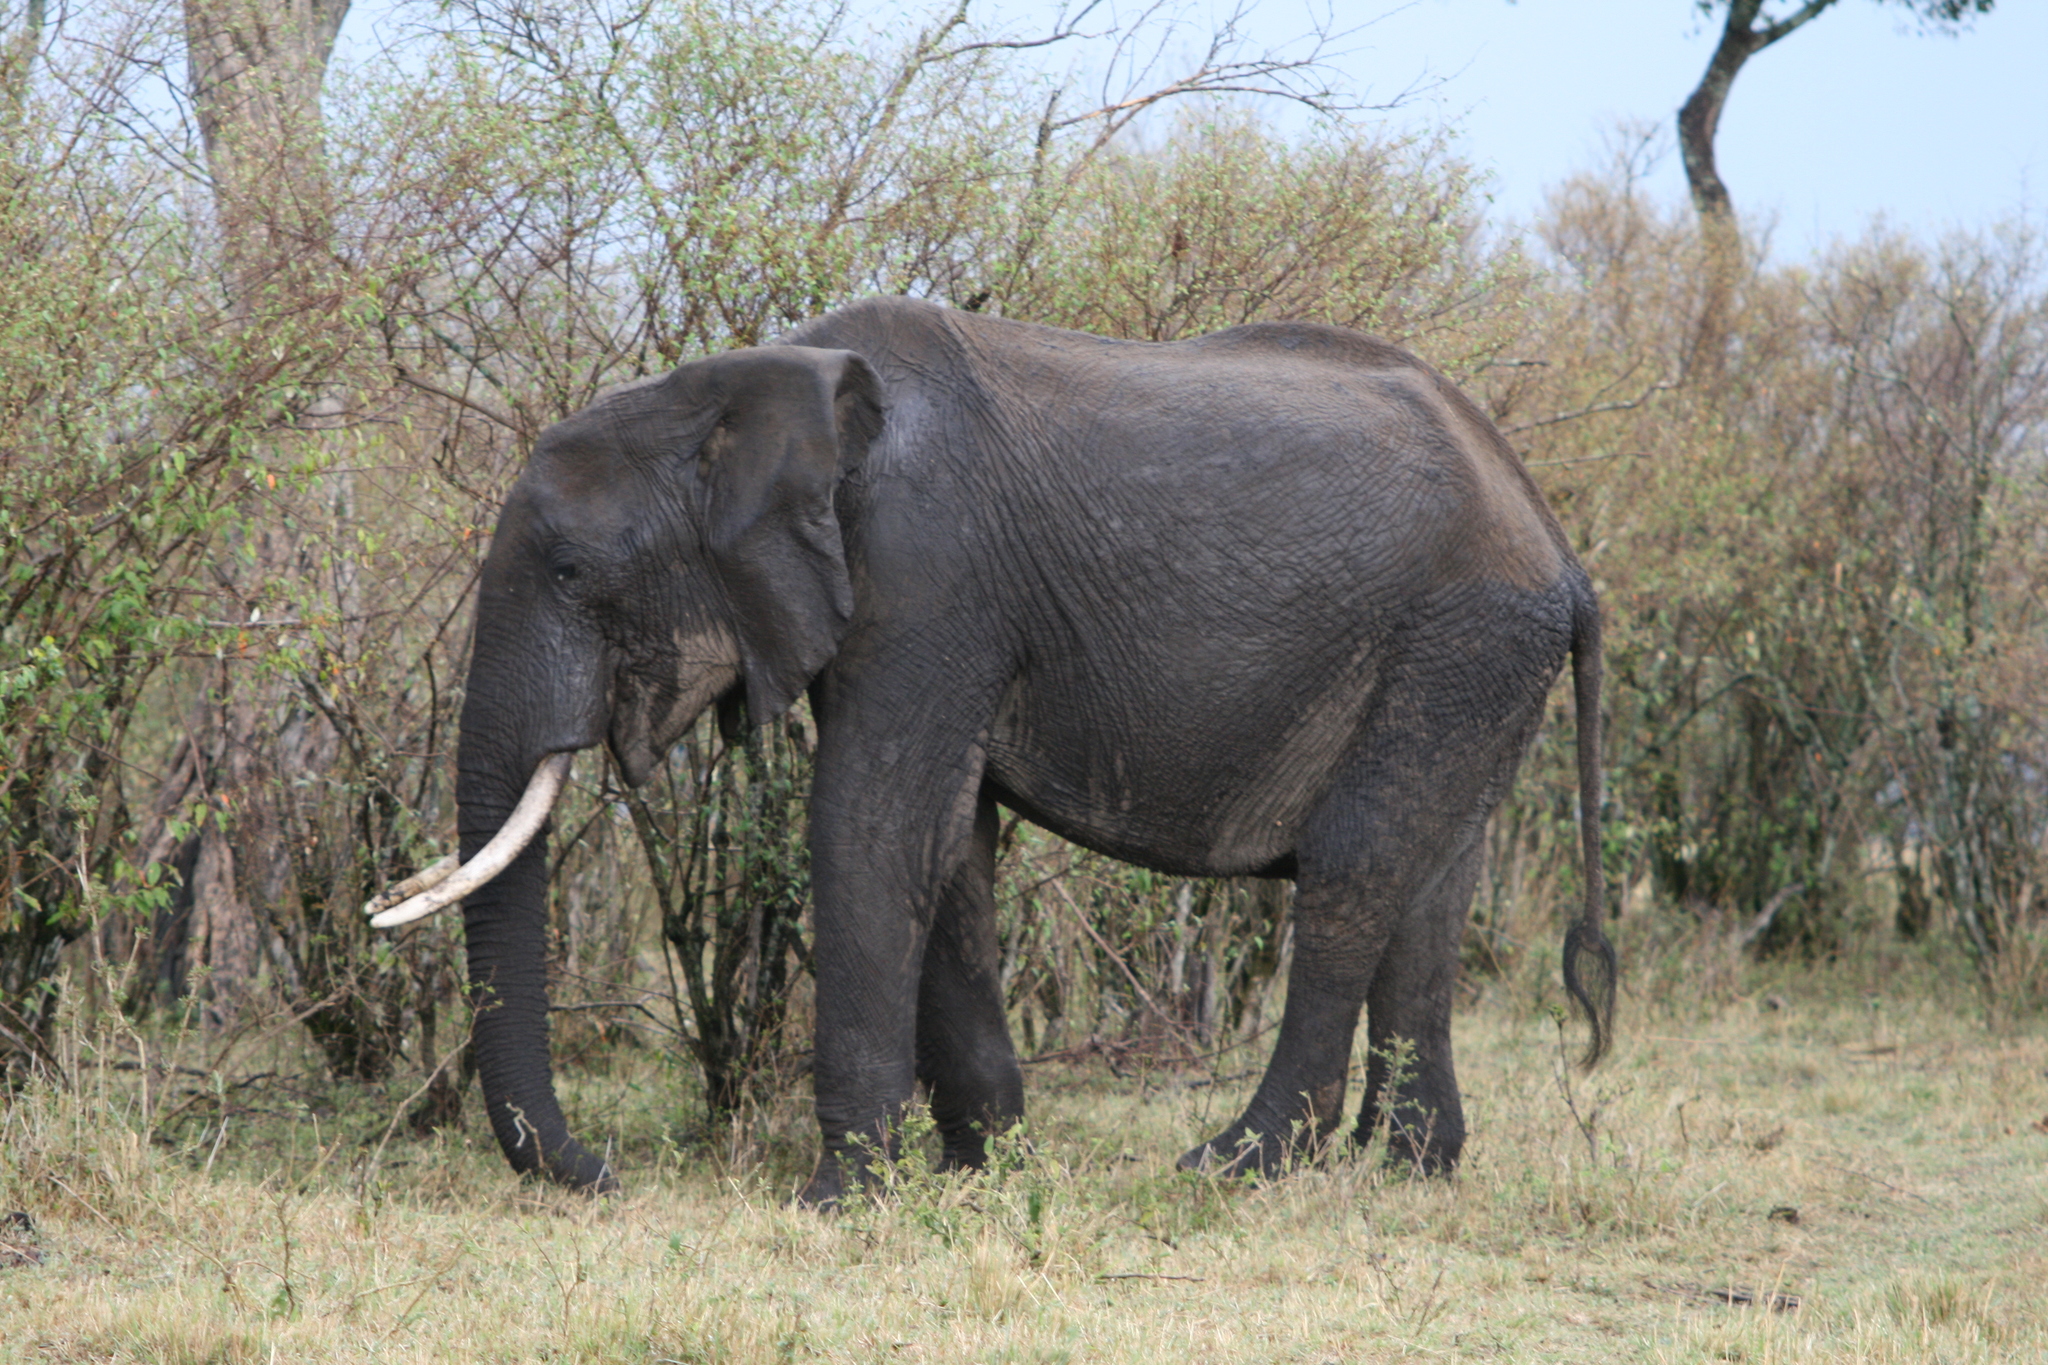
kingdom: Animalia
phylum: Chordata
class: Mammalia
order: Proboscidea
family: Elephantidae
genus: Loxodonta
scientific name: Loxodonta africana
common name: African elephant
